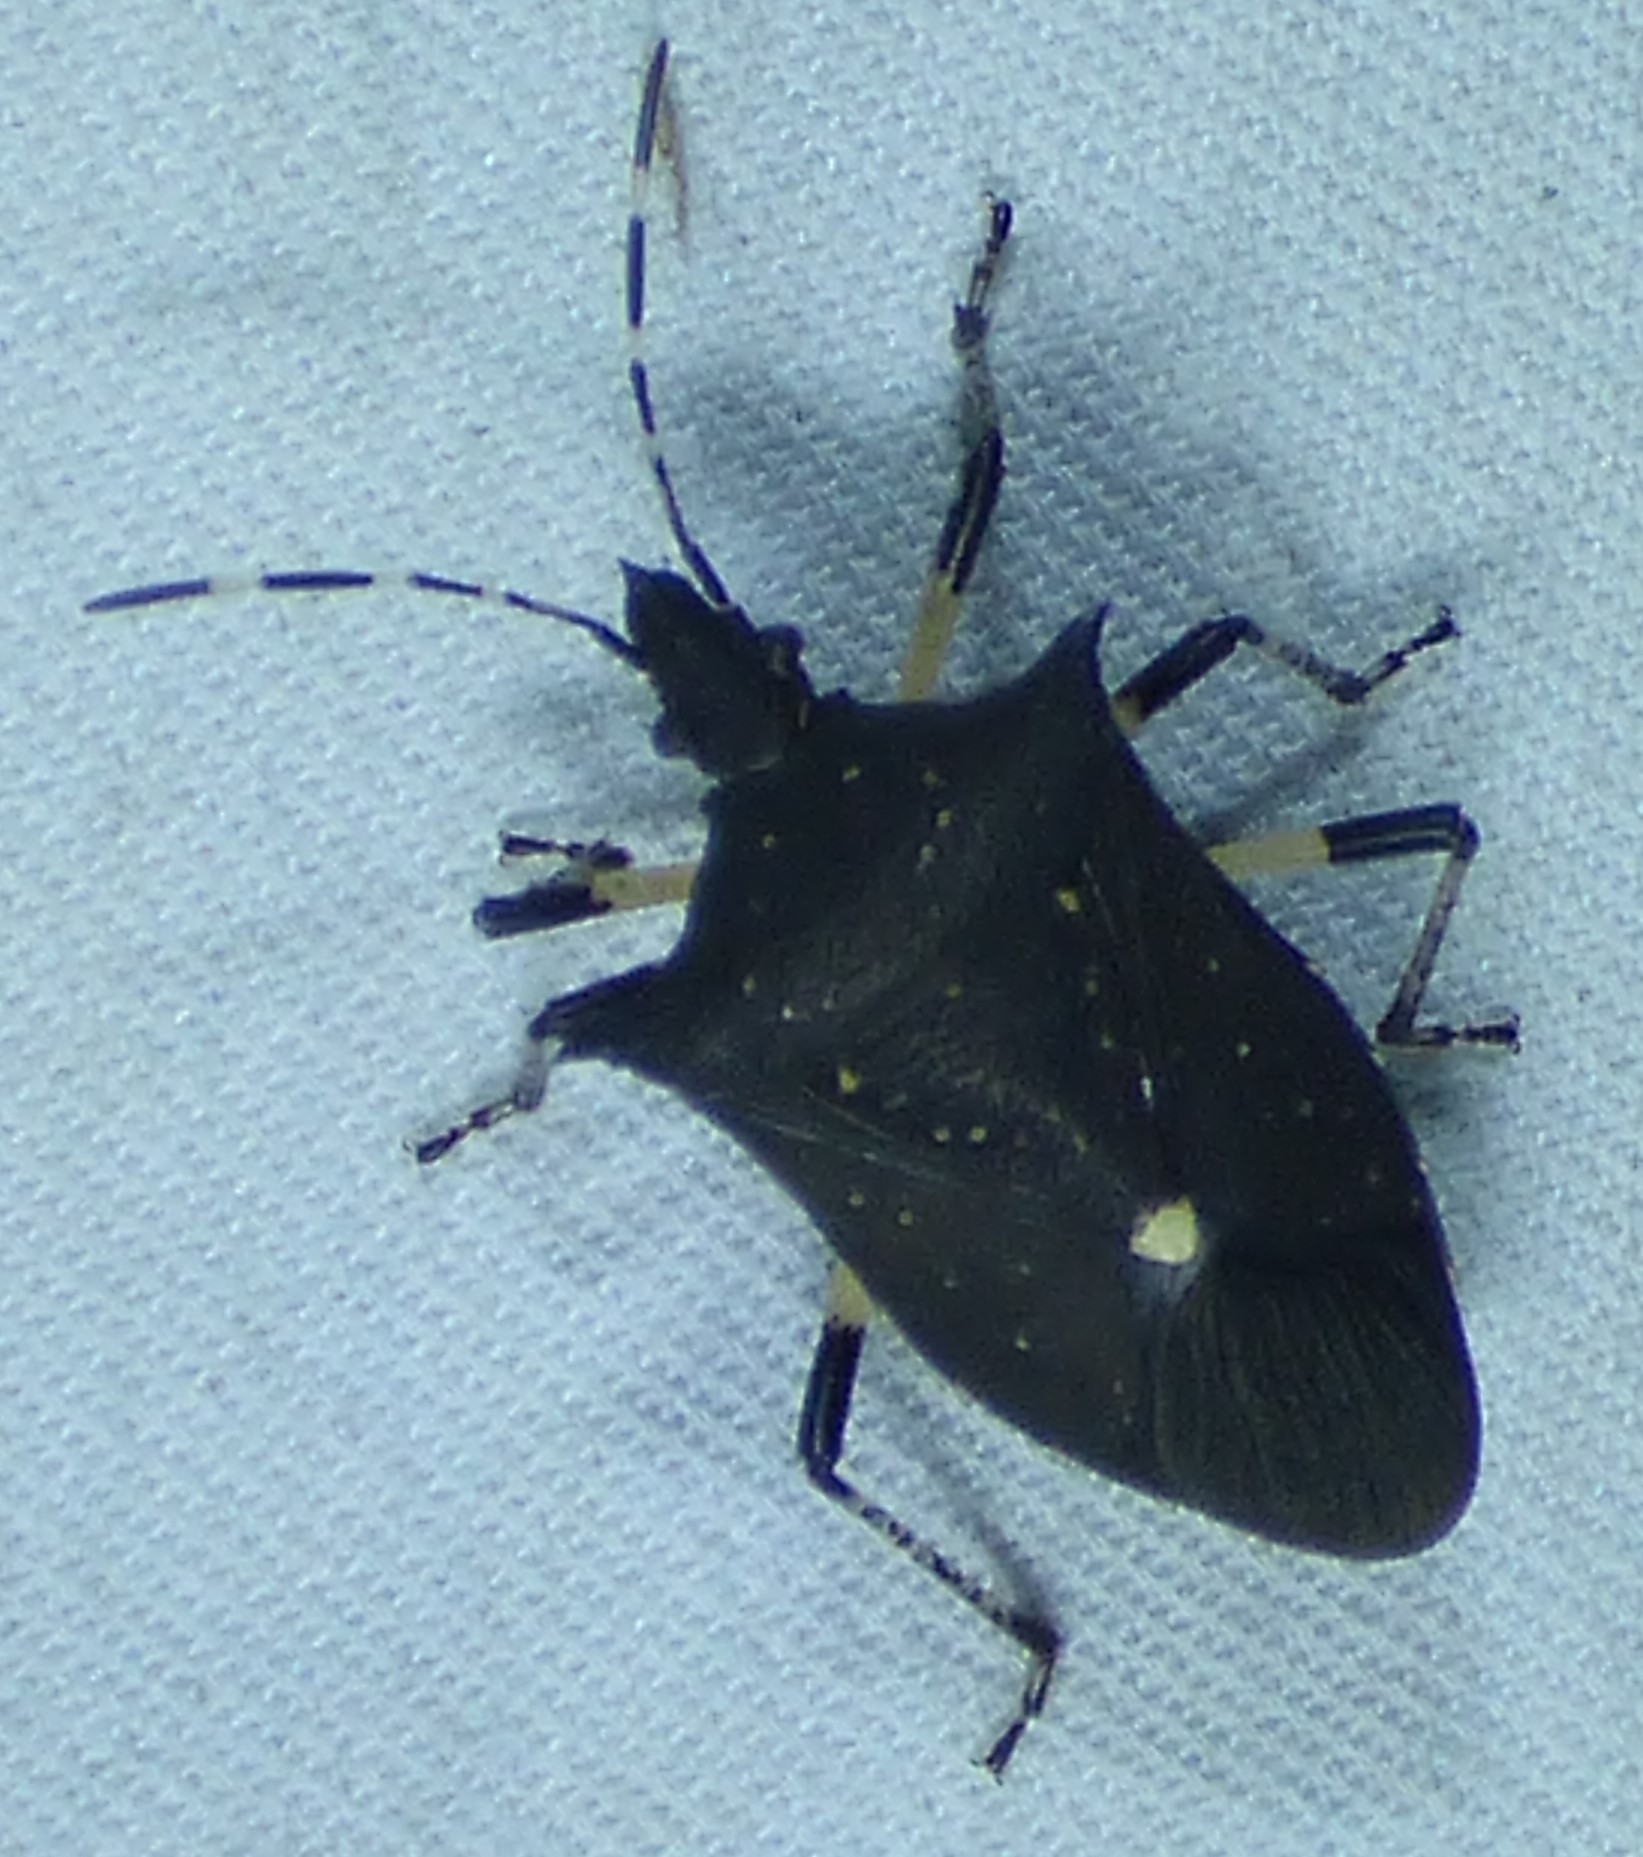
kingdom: Animalia
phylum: Arthropoda
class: Insecta
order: Hemiptera
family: Pentatomidae
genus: Proxys
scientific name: Proxys punctulatus
